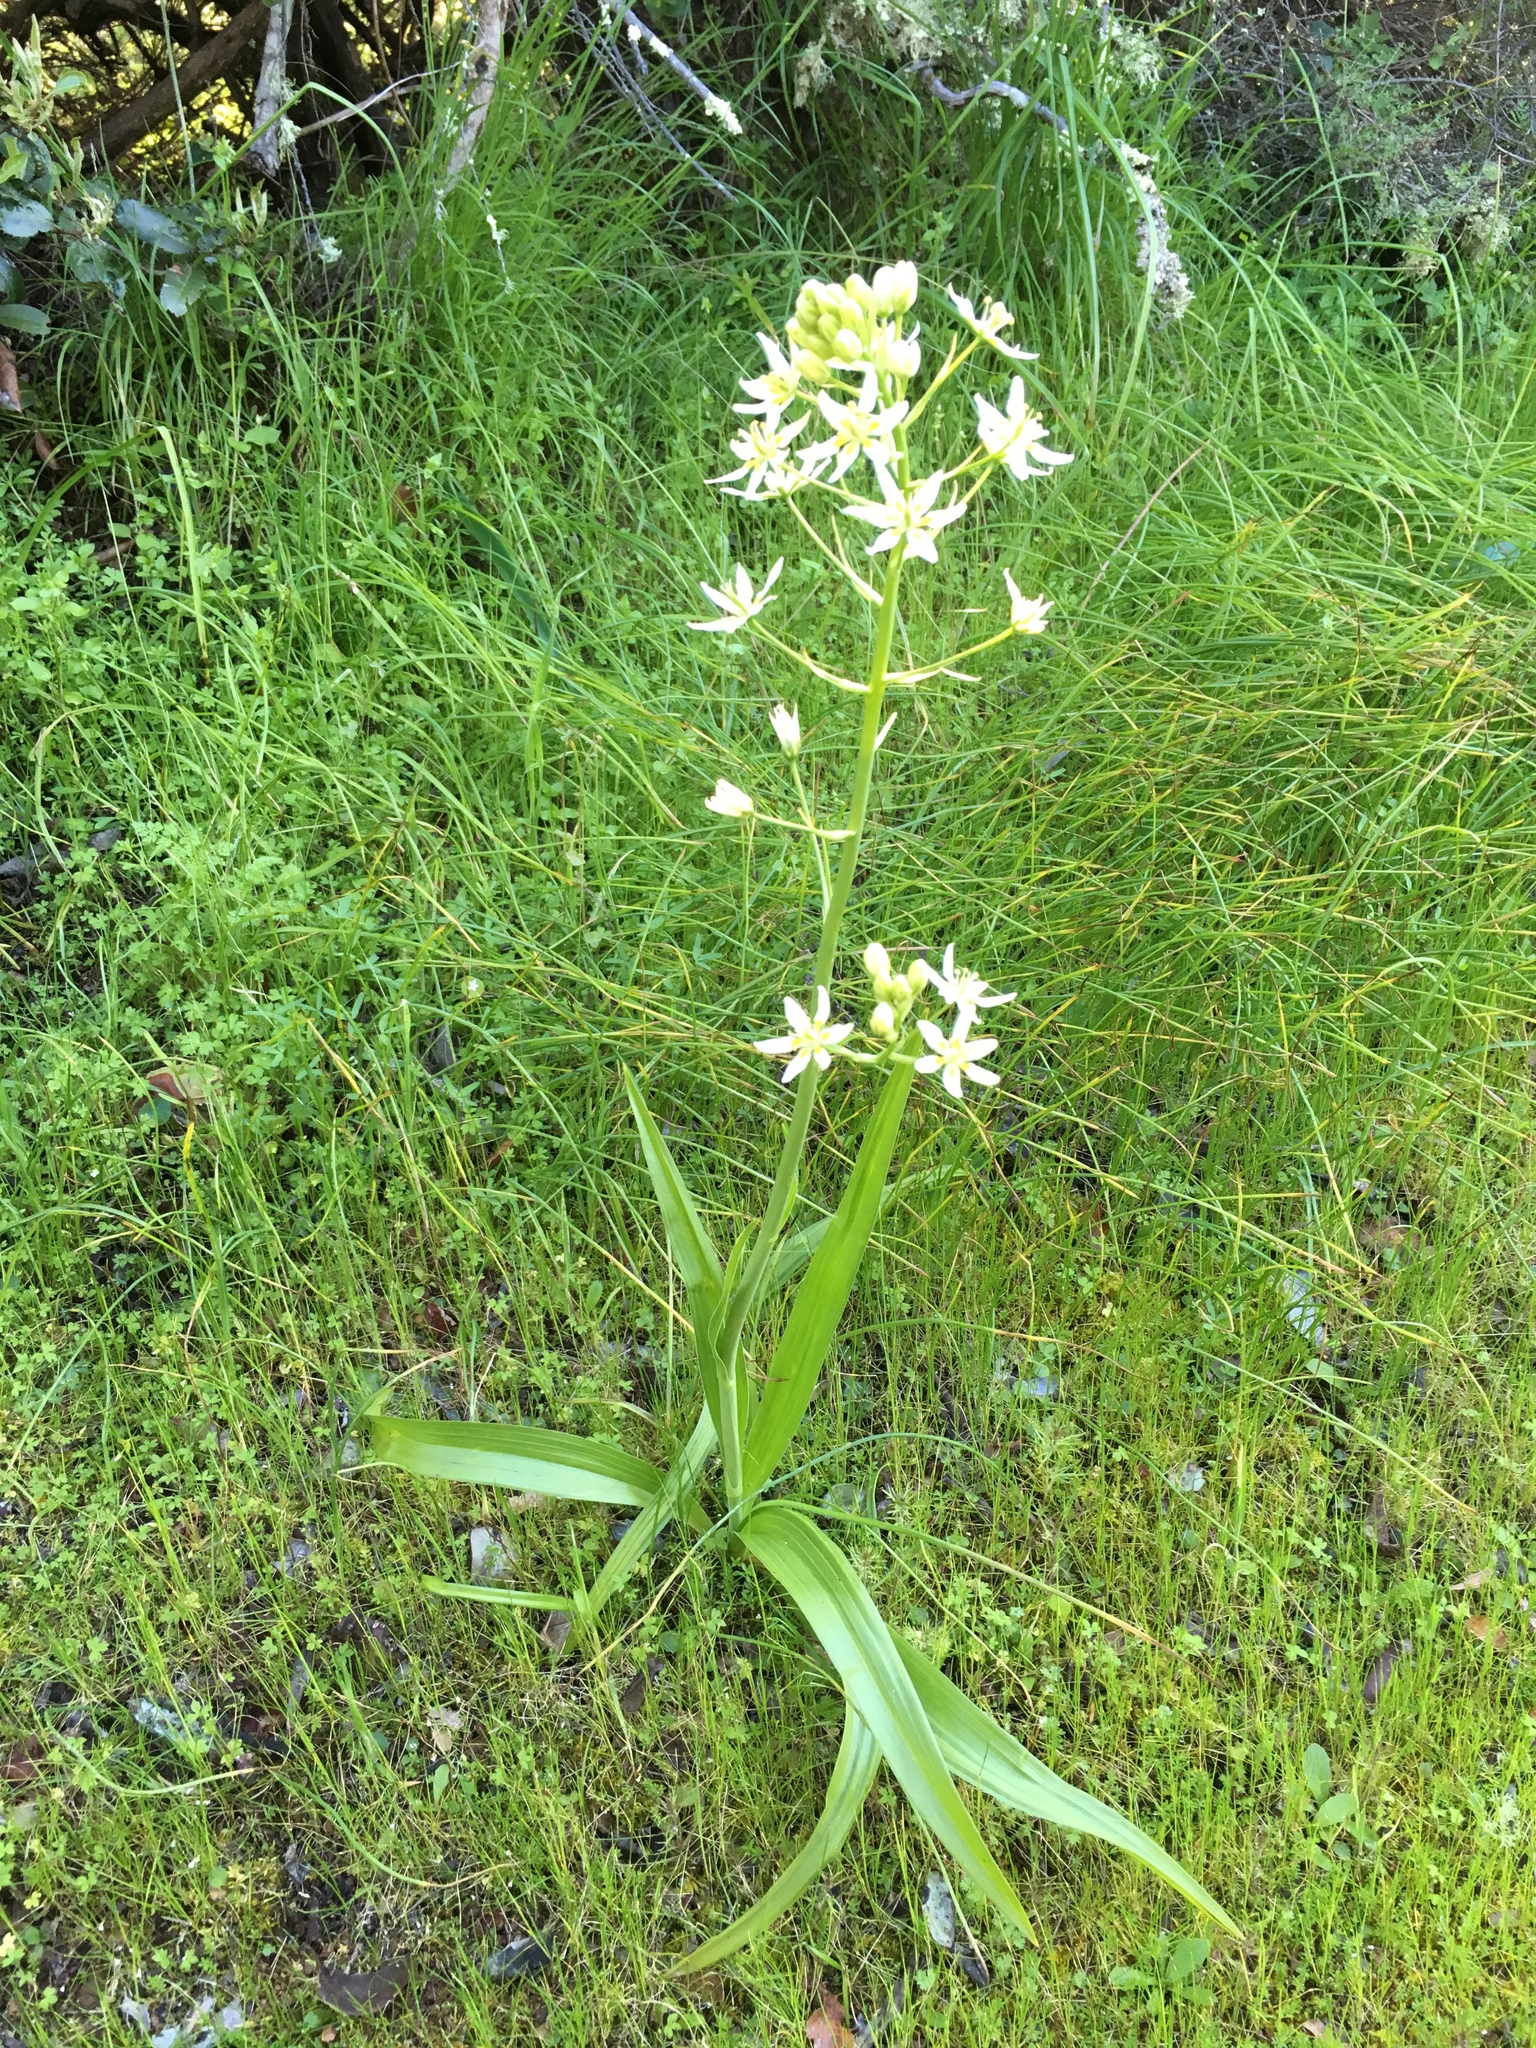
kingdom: Plantae
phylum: Tracheophyta
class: Liliopsida
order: Liliales
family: Melanthiaceae
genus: Toxicoscordion
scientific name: Toxicoscordion fremontii
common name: Fremont's death camas
